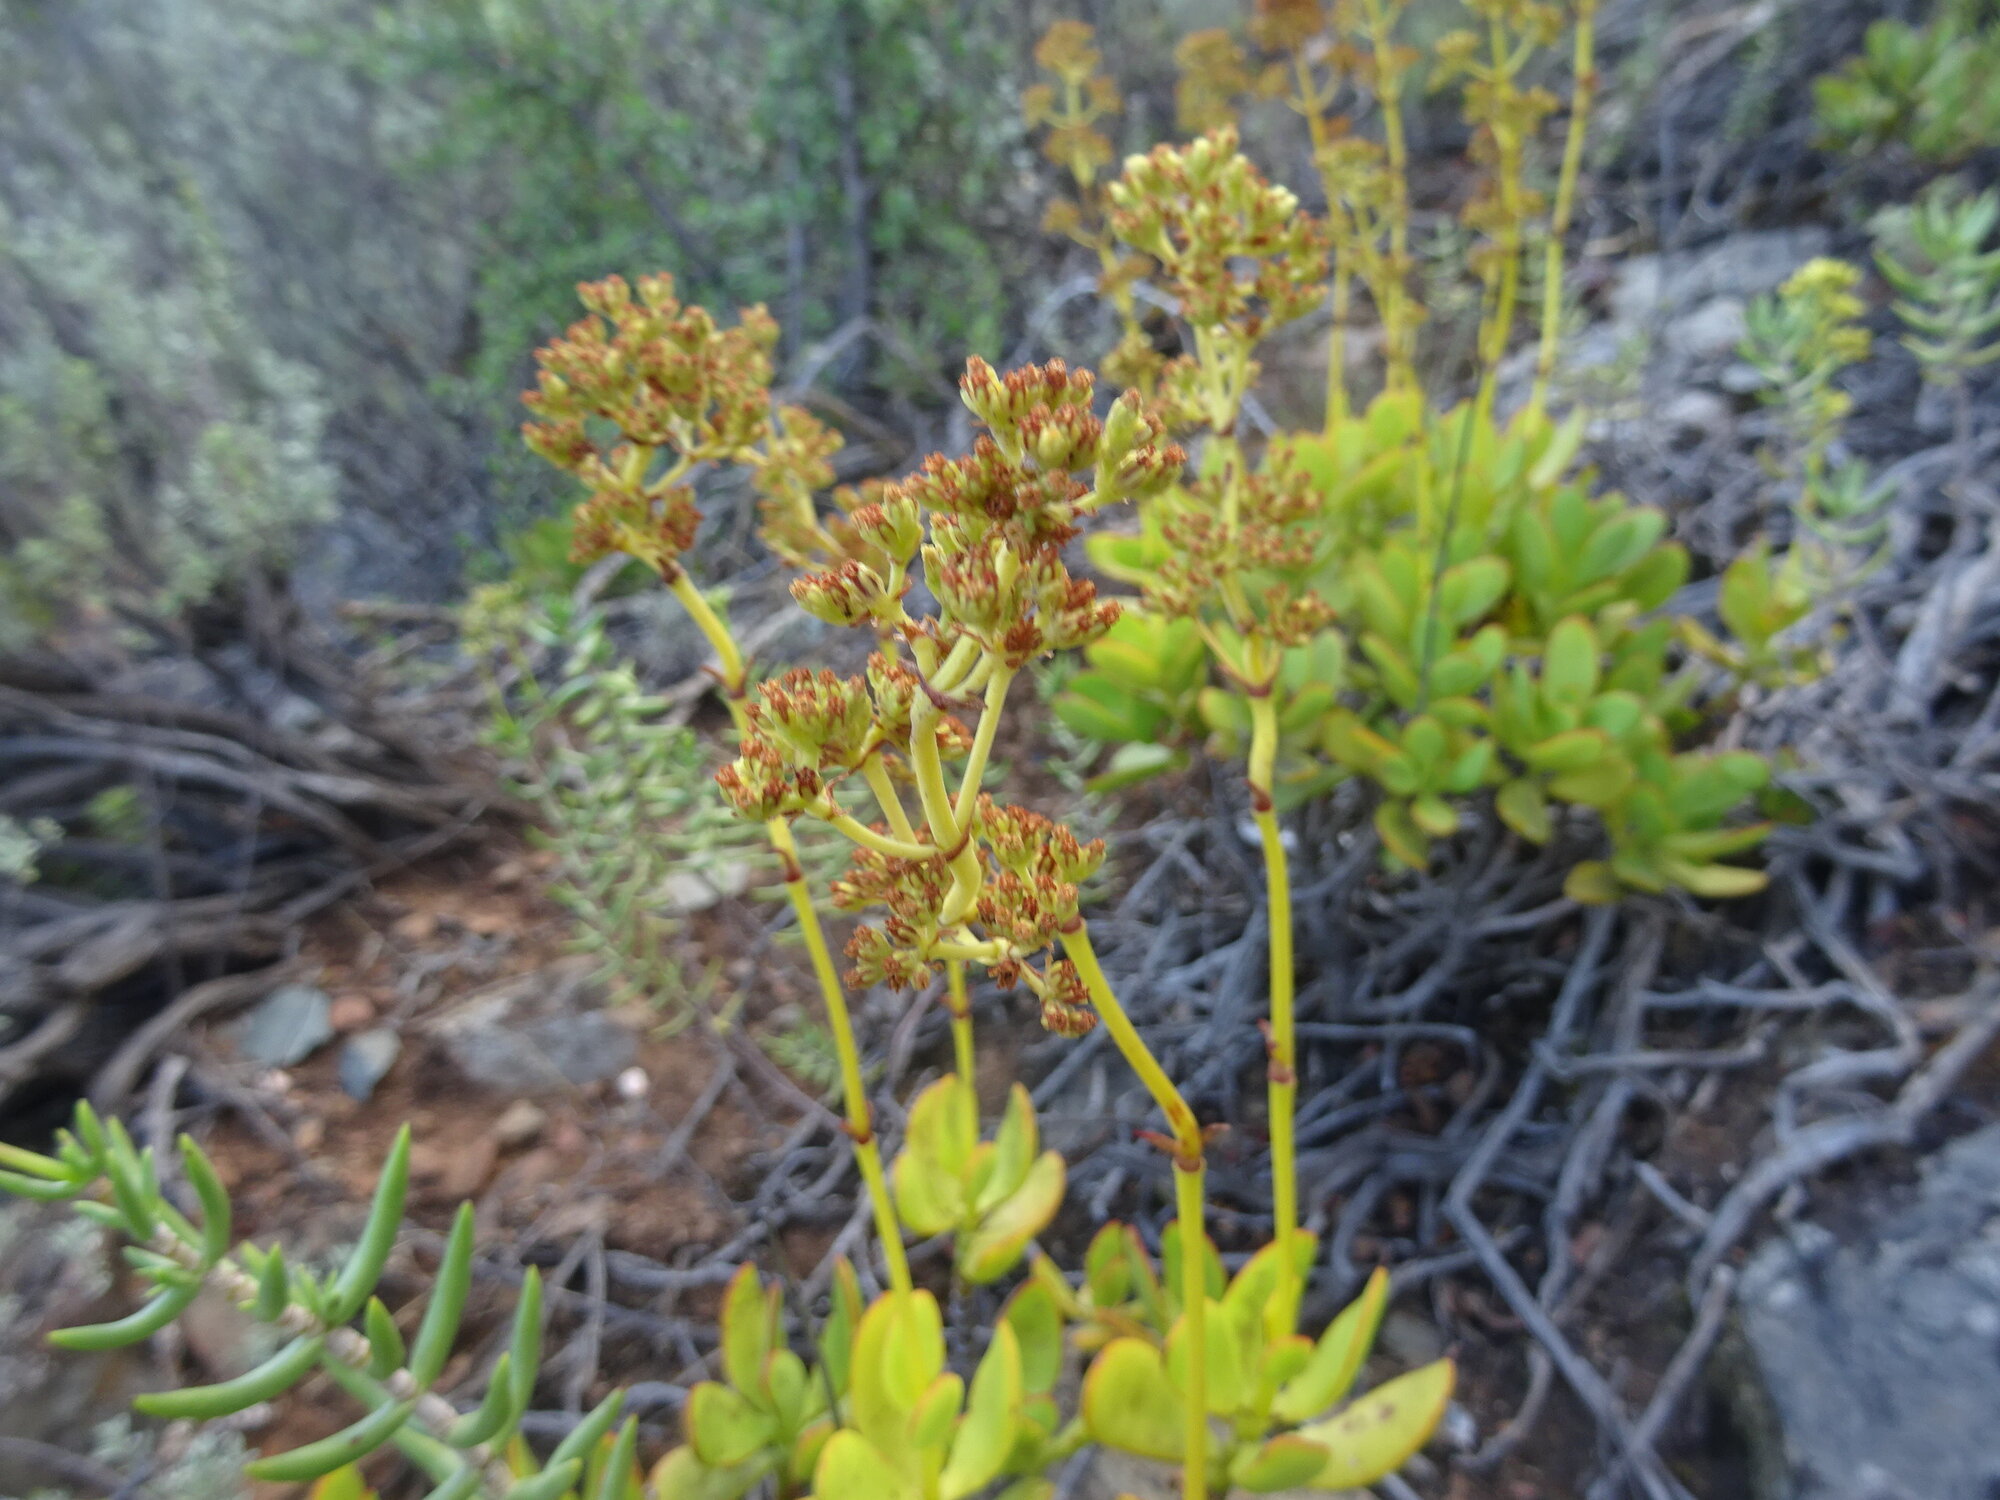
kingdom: Plantae
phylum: Tracheophyta
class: Magnoliopsida
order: Saxifragales
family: Crassulaceae
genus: Crassula
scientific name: Crassula cultrata
